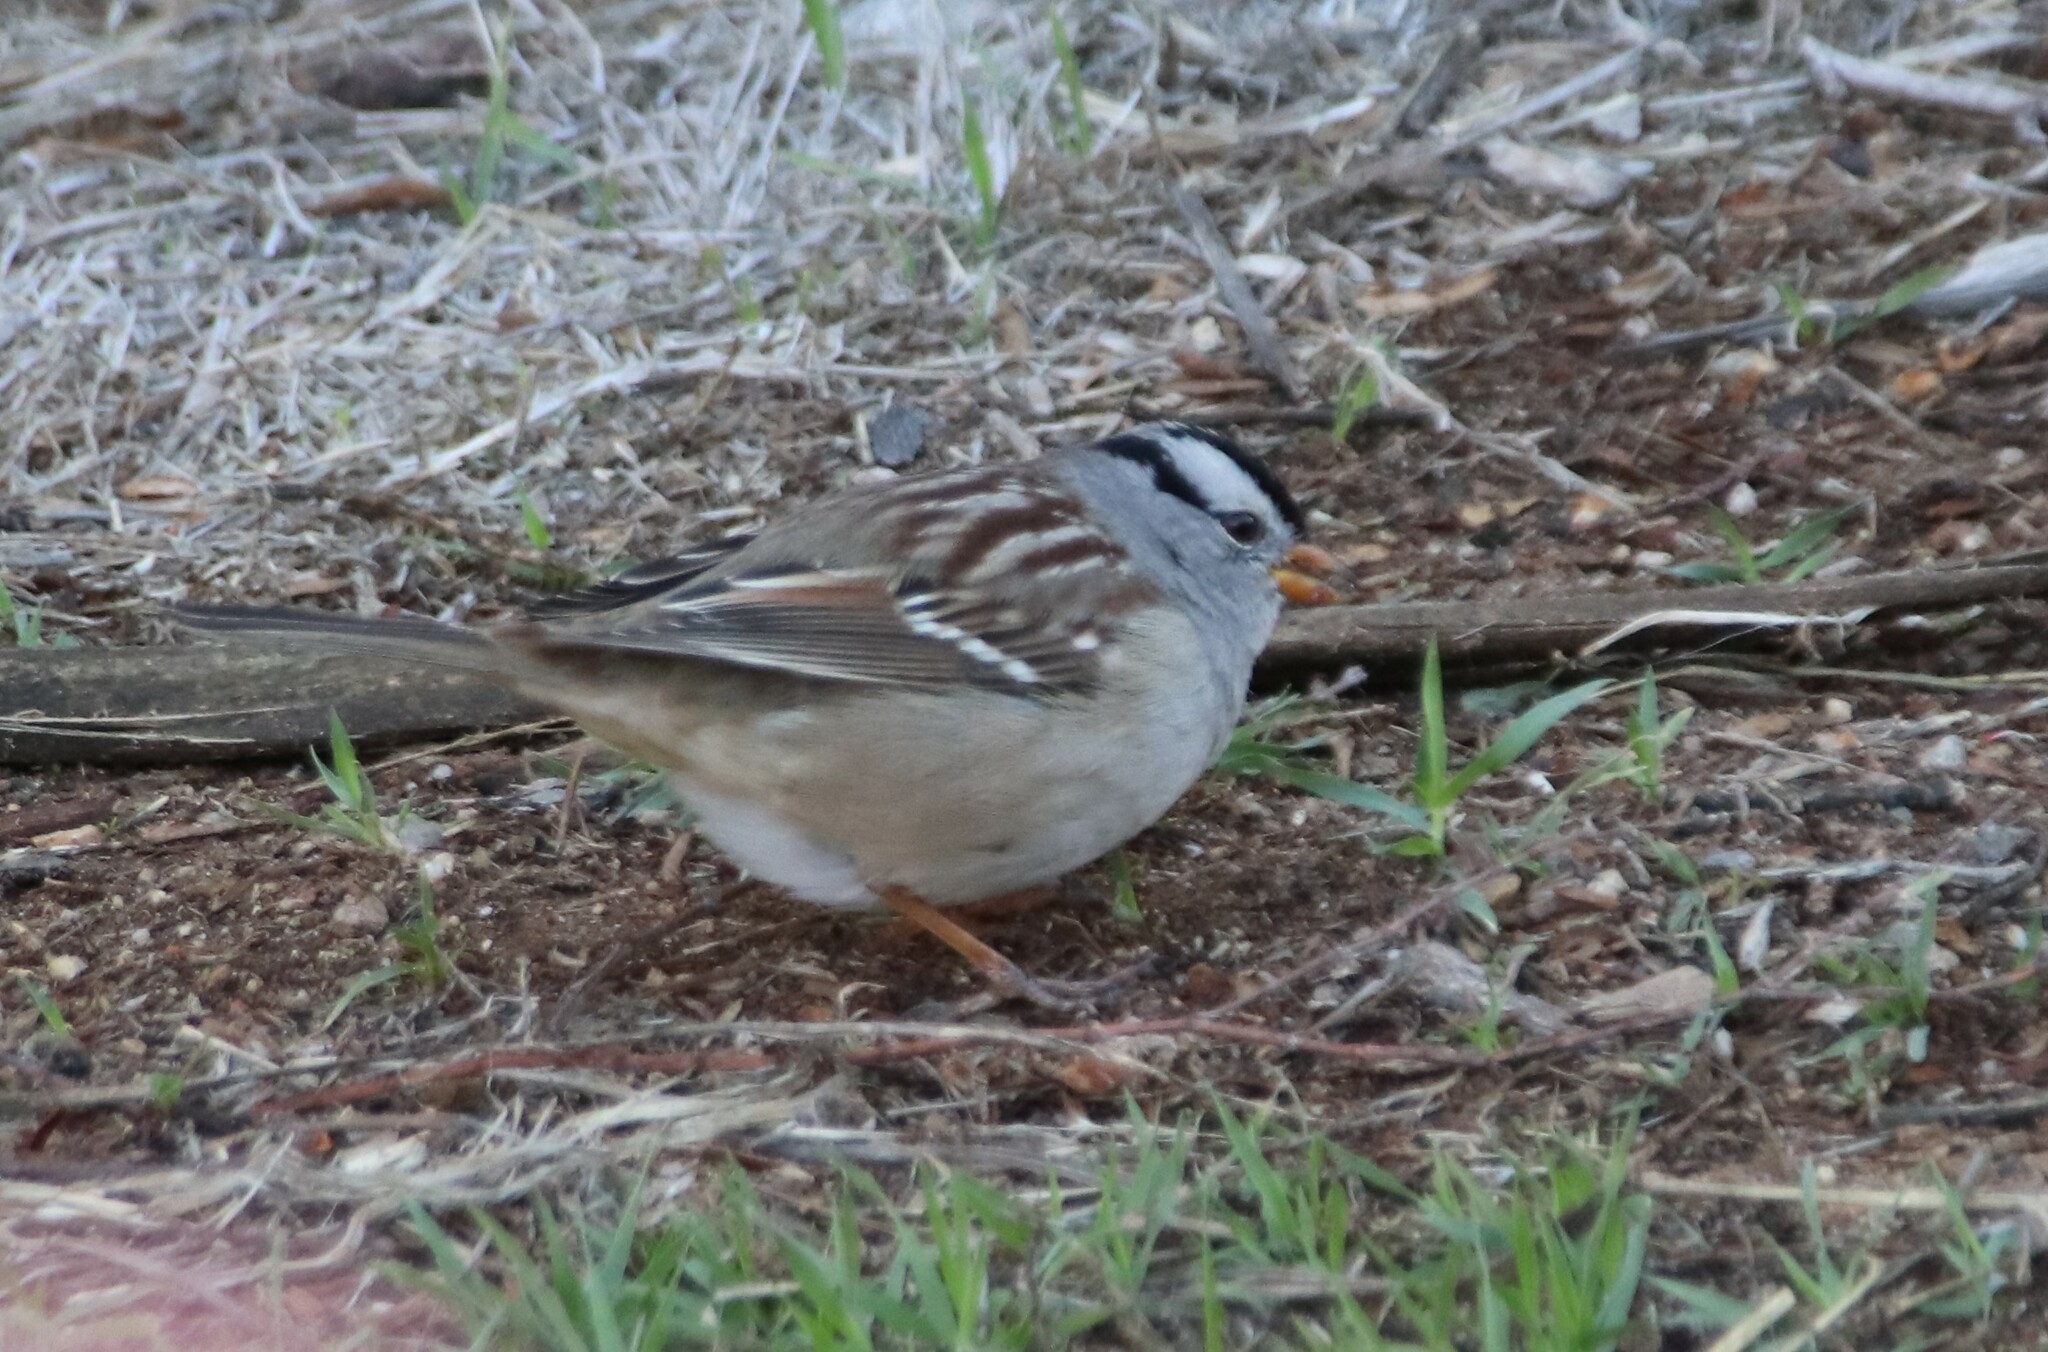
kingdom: Animalia
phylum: Chordata
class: Aves
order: Passeriformes
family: Passerellidae
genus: Zonotrichia
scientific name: Zonotrichia leucophrys
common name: White-crowned sparrow
